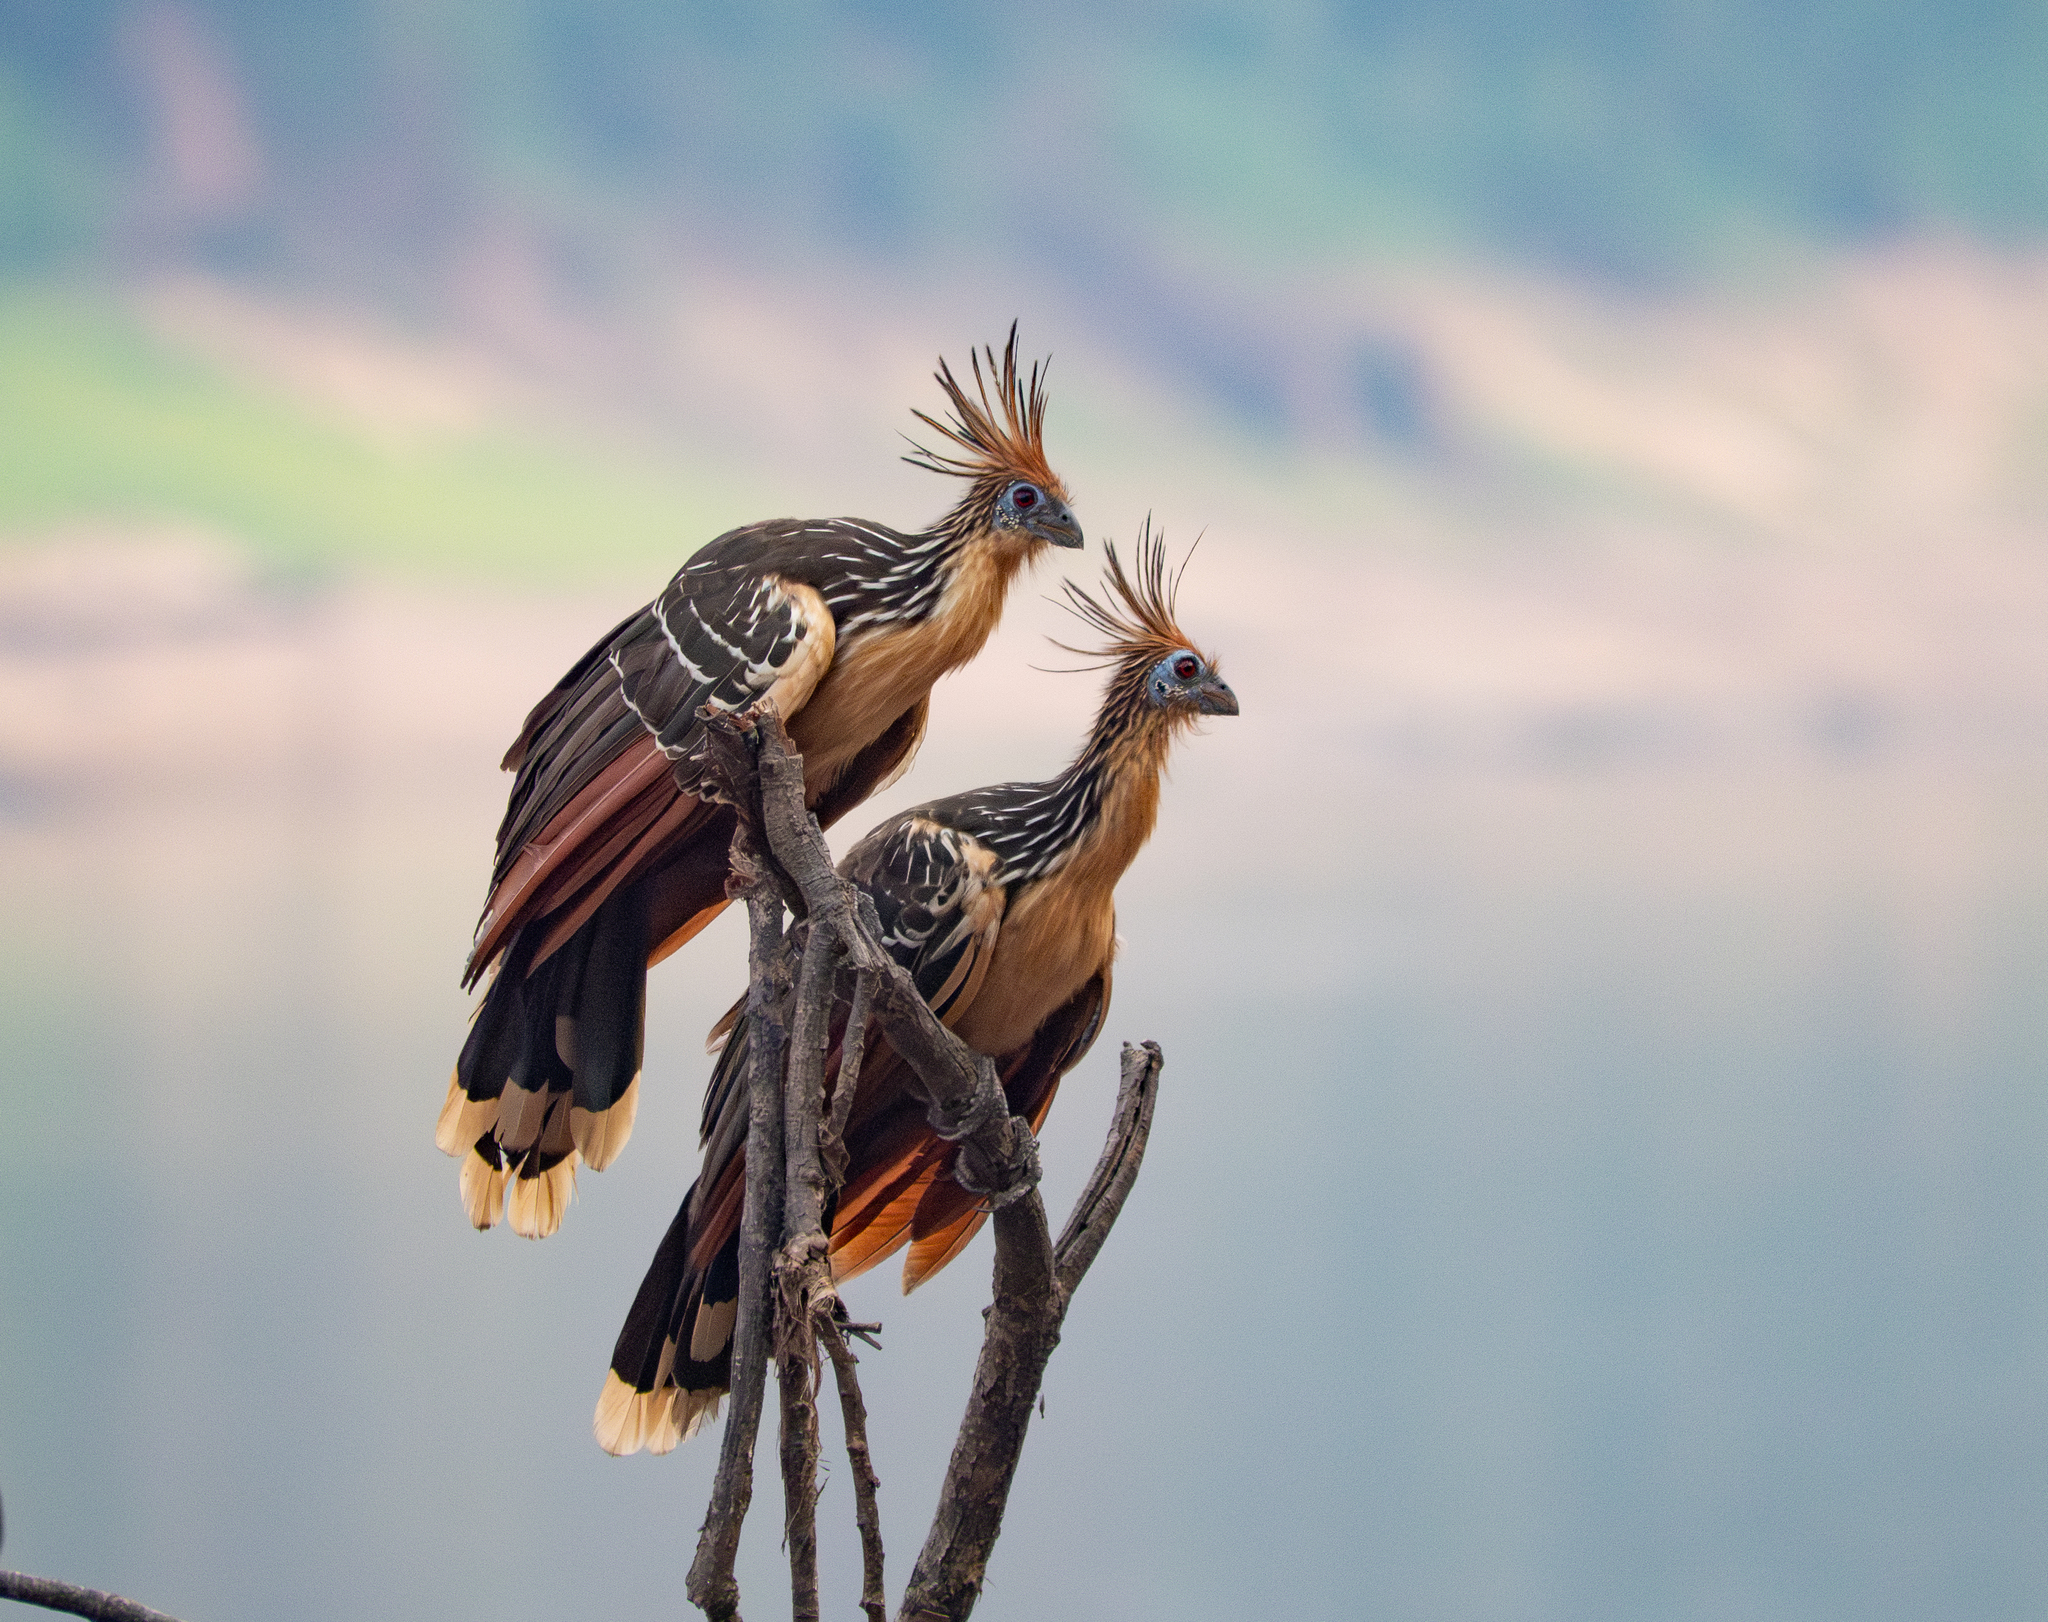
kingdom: Animalia
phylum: Chordata
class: Aves
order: Opisthocomiformes
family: Opisthocomidae
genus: Opisthocomus
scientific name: Opisthocomus hoazin
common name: Hoatzin
